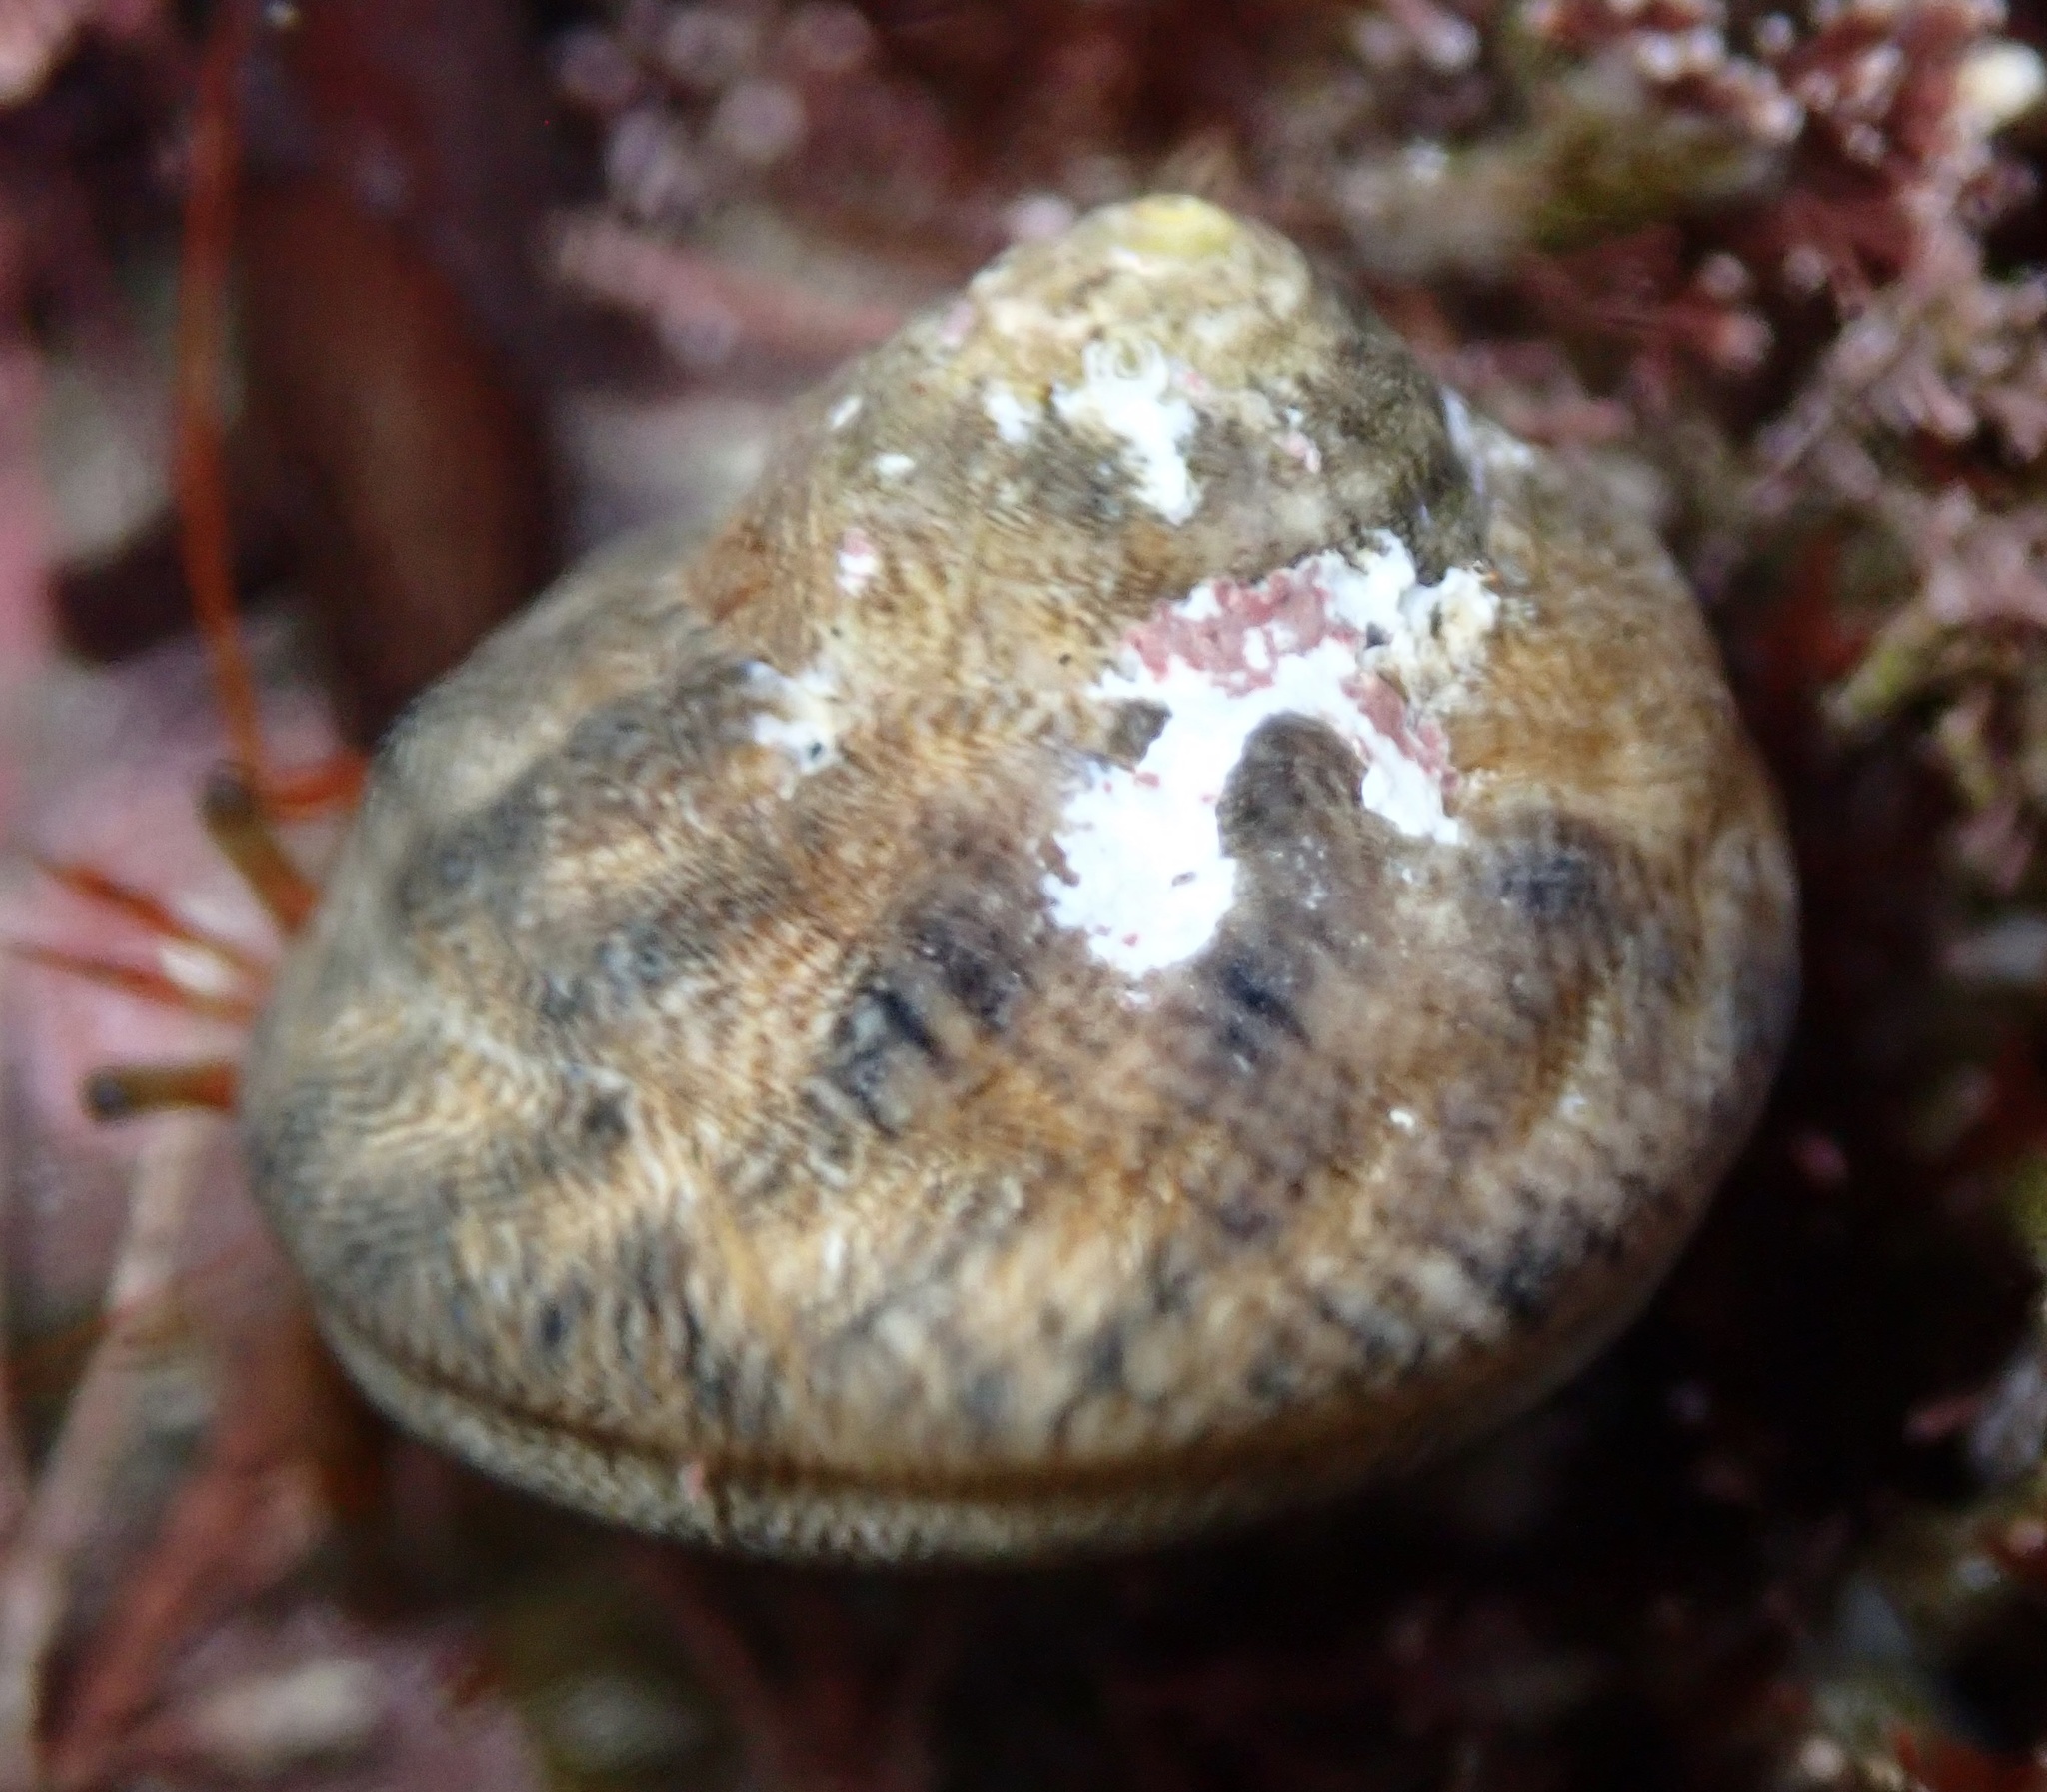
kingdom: Animalia
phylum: Mollusca
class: Gastropoda
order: Trochida
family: Tegulidae
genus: Tegula
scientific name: Tegula aureotincta
